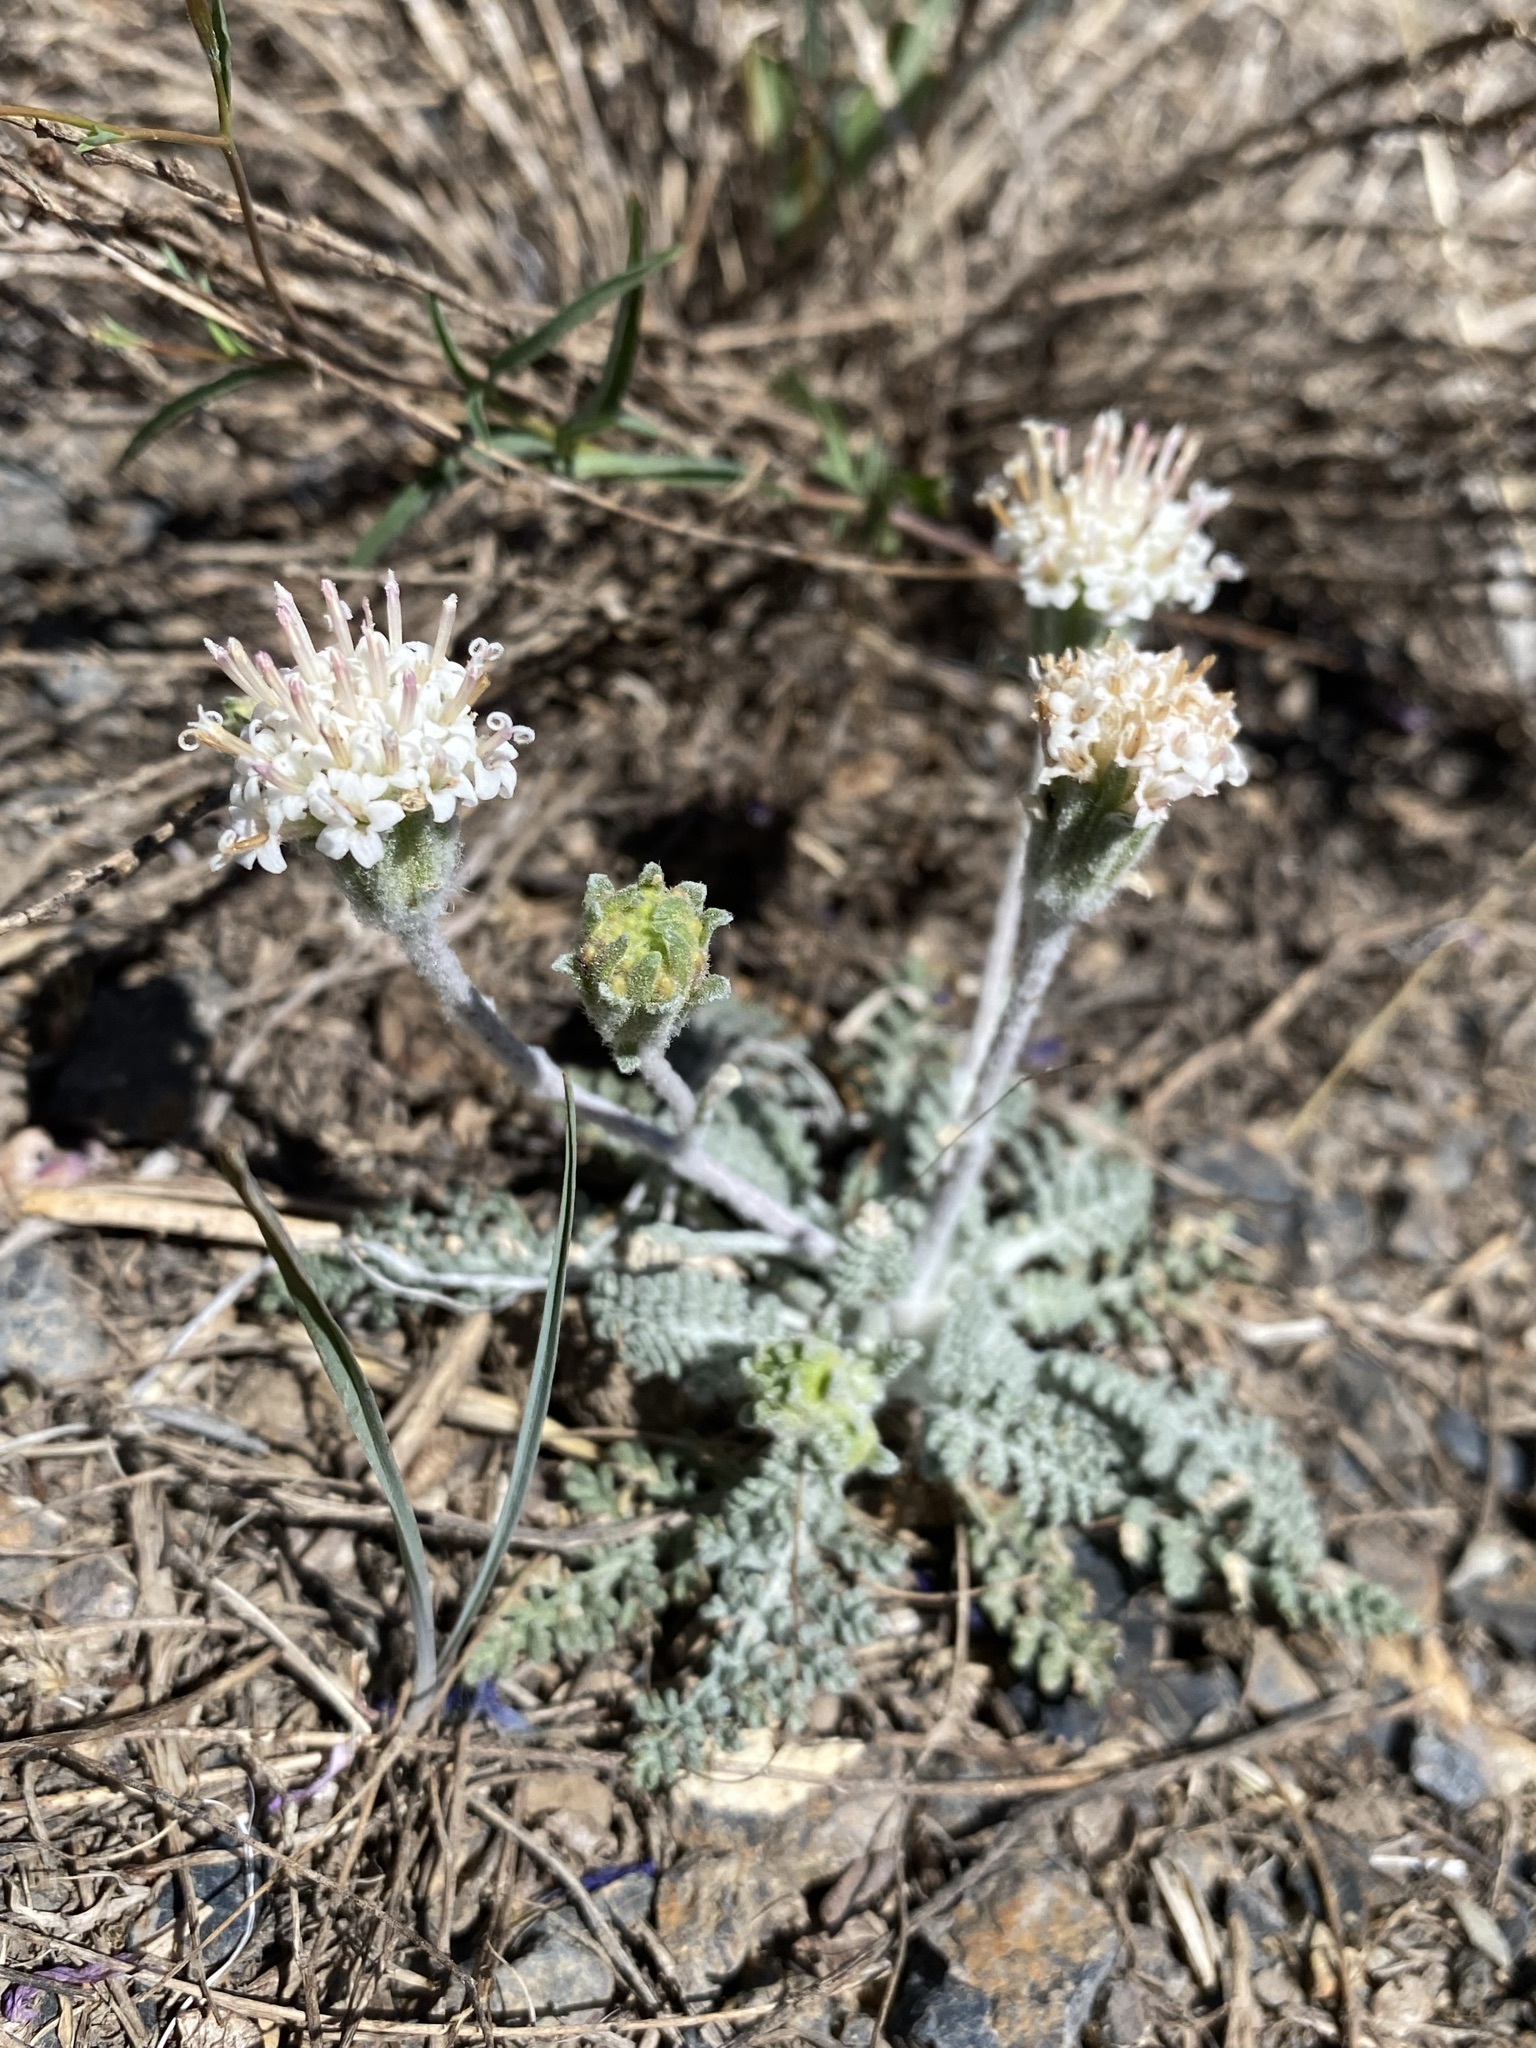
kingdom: Plantae
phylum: Tracheophyta
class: Magnoliopsida
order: Asterales
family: Asteraceae
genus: Chaenactis
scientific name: Chaenactis douglasii
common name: Hoary pincushion
